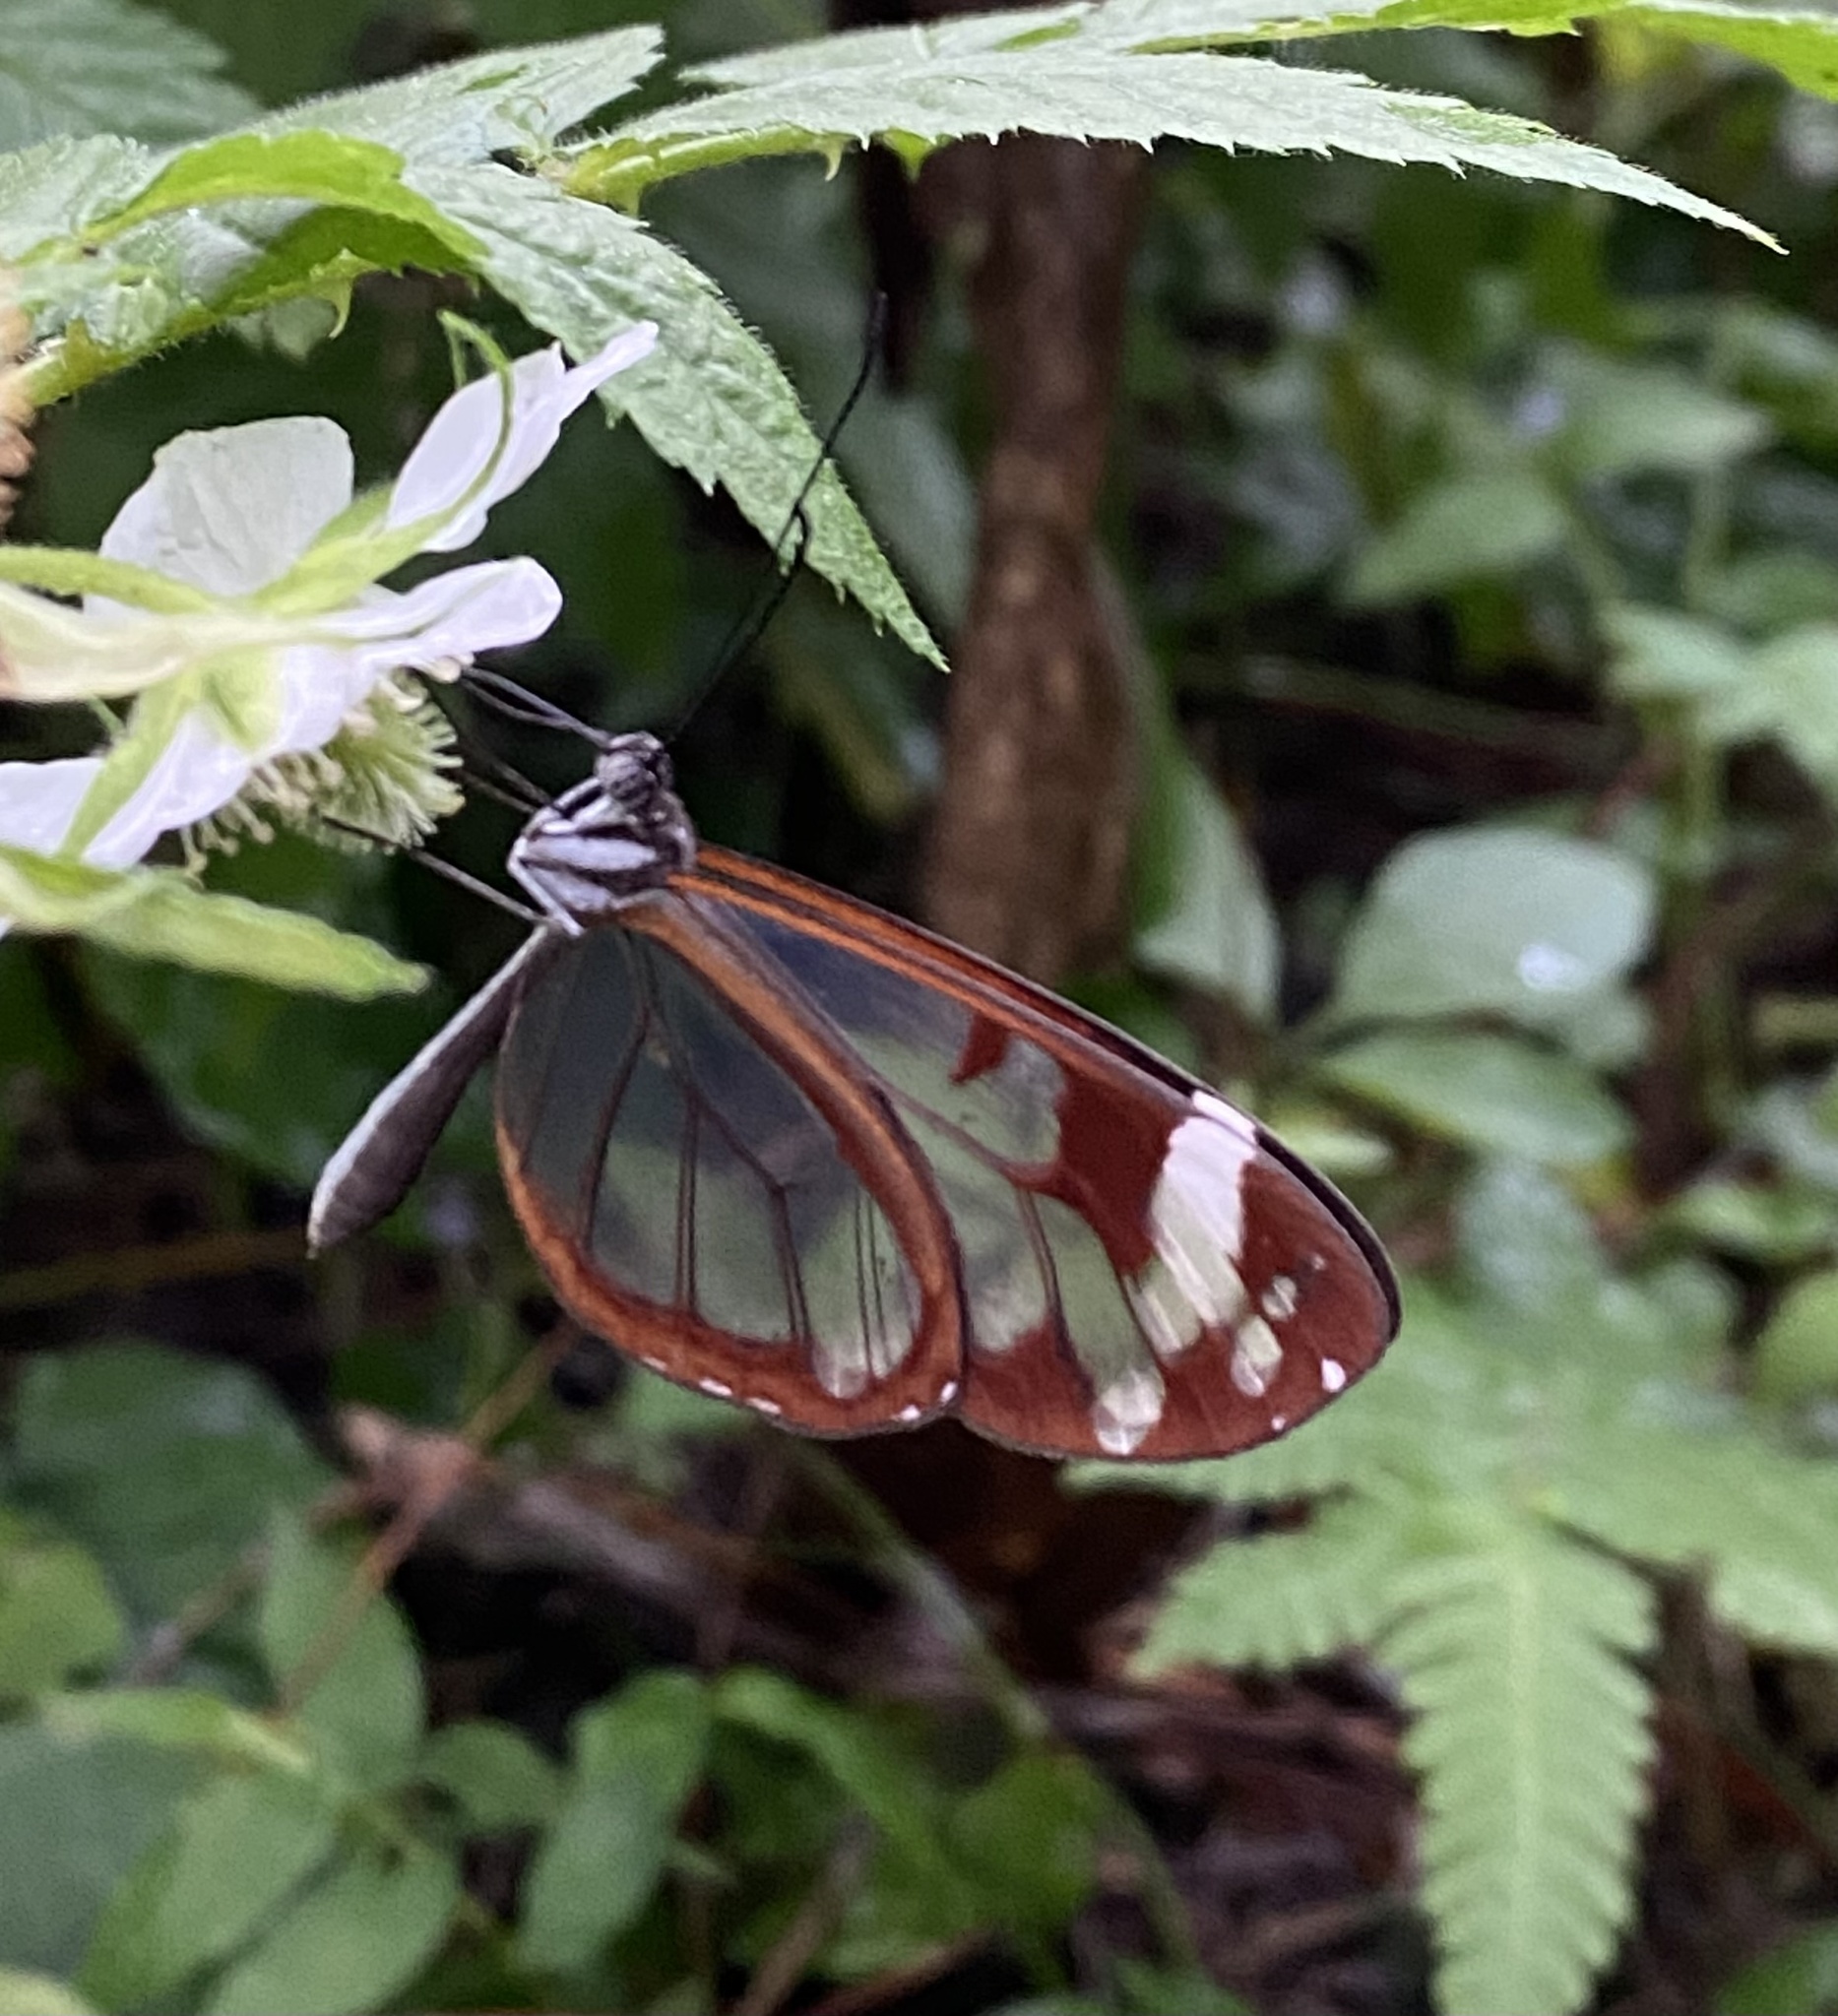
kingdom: Animalia
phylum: Arthropoda
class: Insecta
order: Lepidoptera
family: Nymphalidae
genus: Oleria
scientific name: Oleria zea
